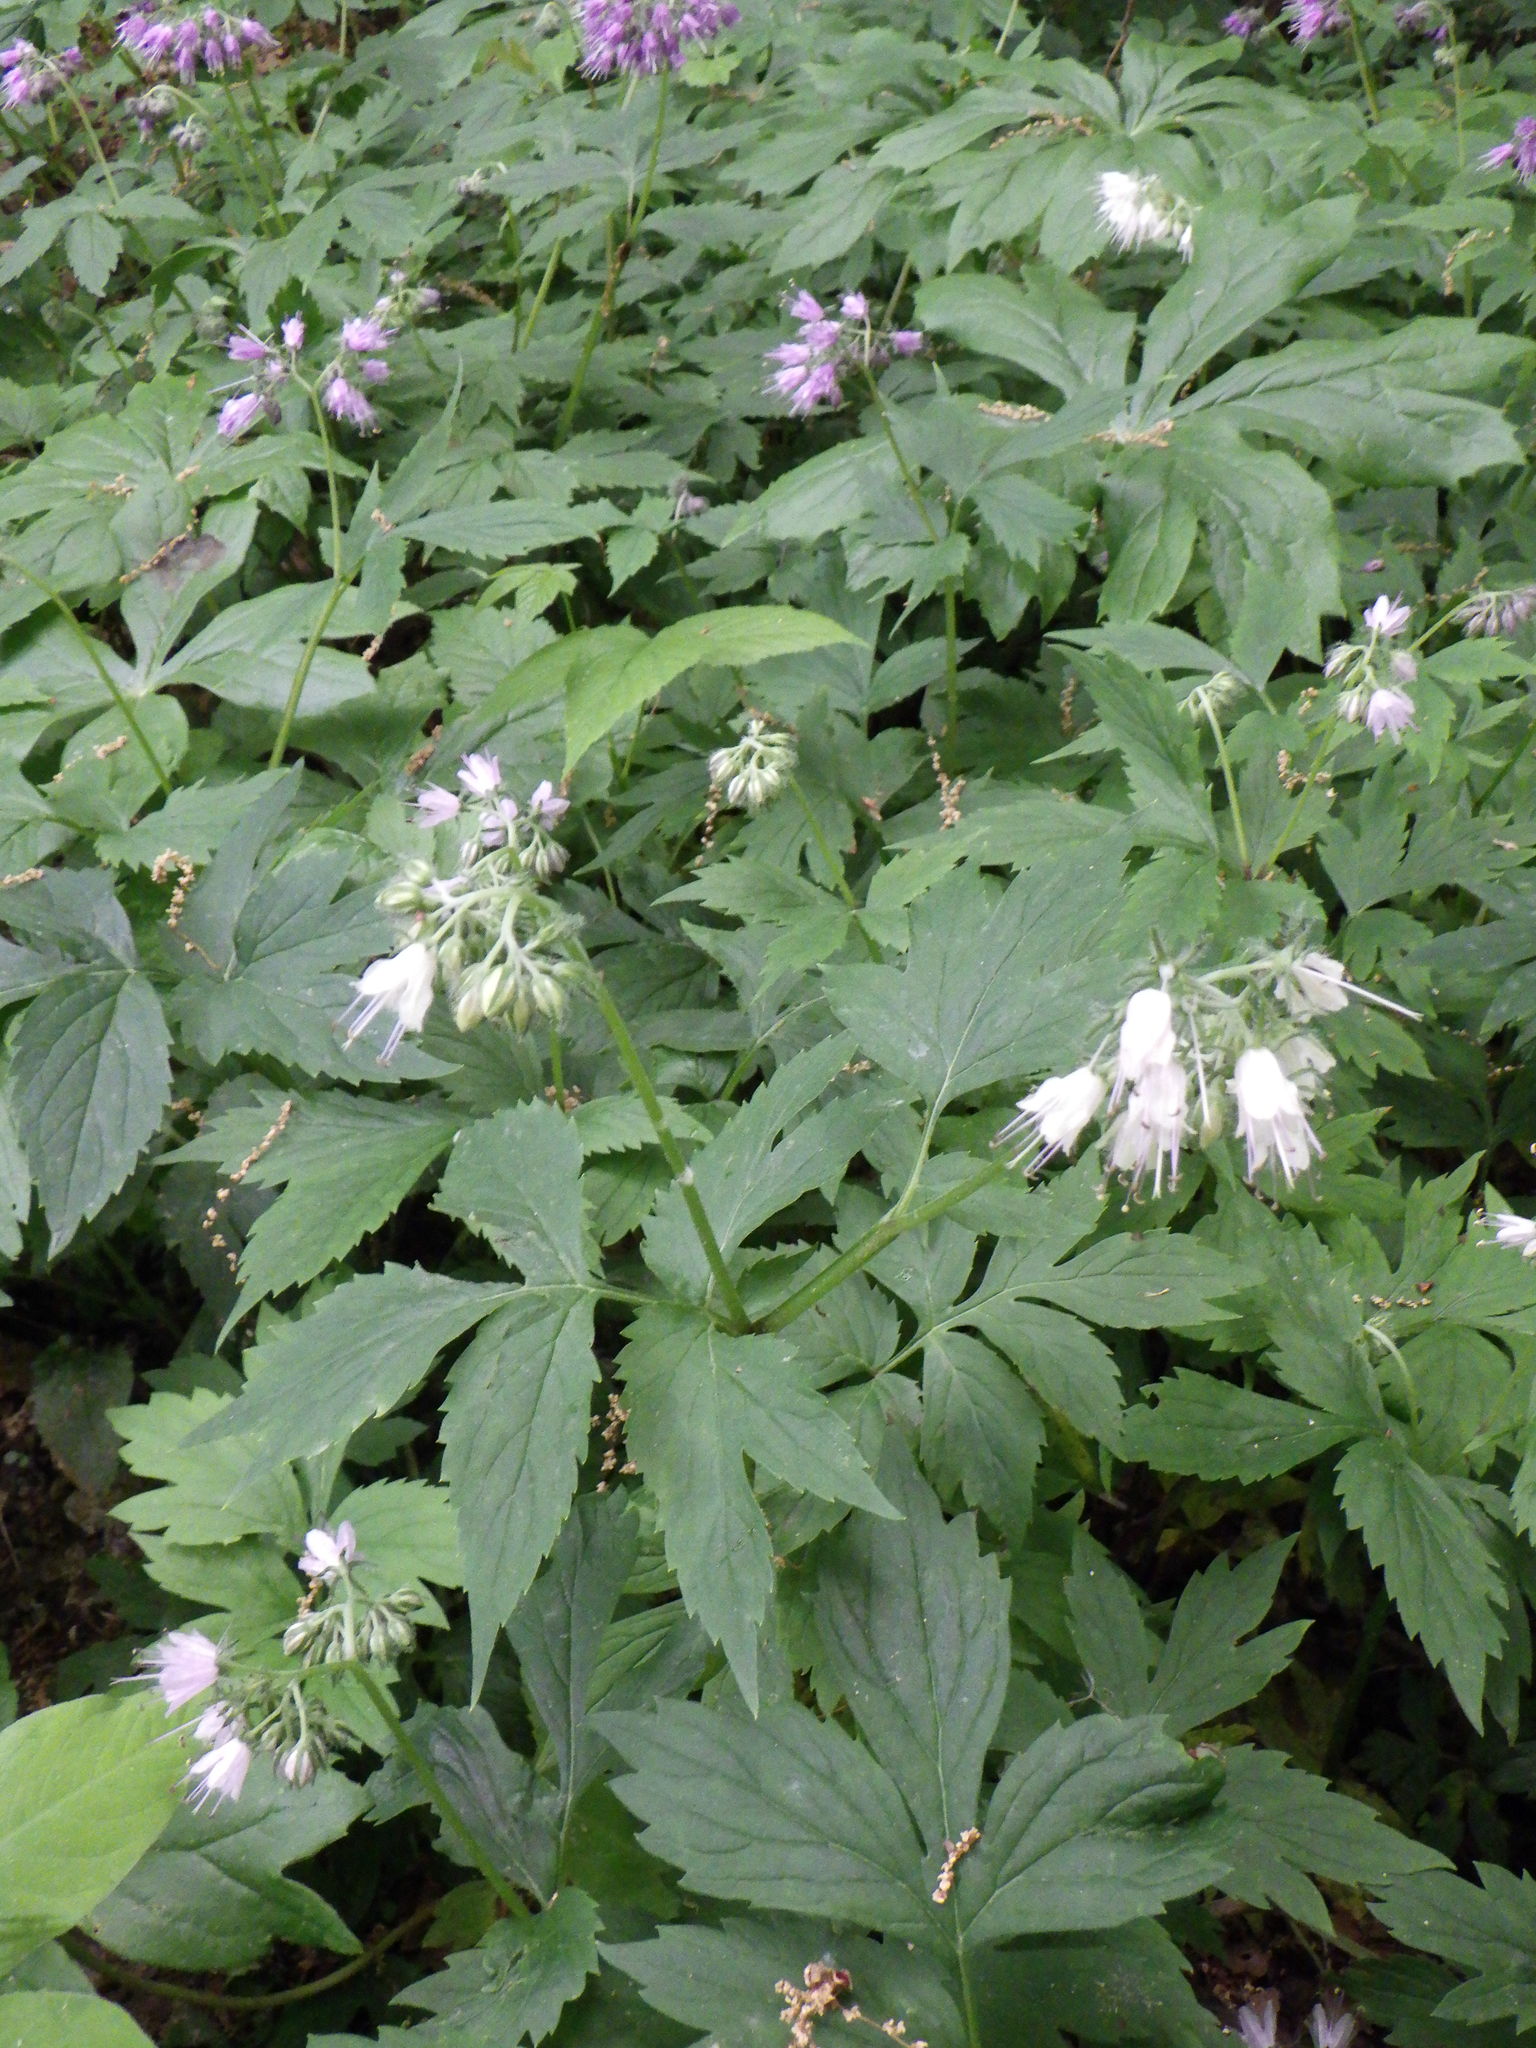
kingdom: Plantae
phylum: Tracheophyta
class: Magnoliopsida
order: Boraginales
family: Hydrophyllaceae
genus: Hydrophyllum
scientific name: Hydrophyllum virginianum
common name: Virginia waterleaf
